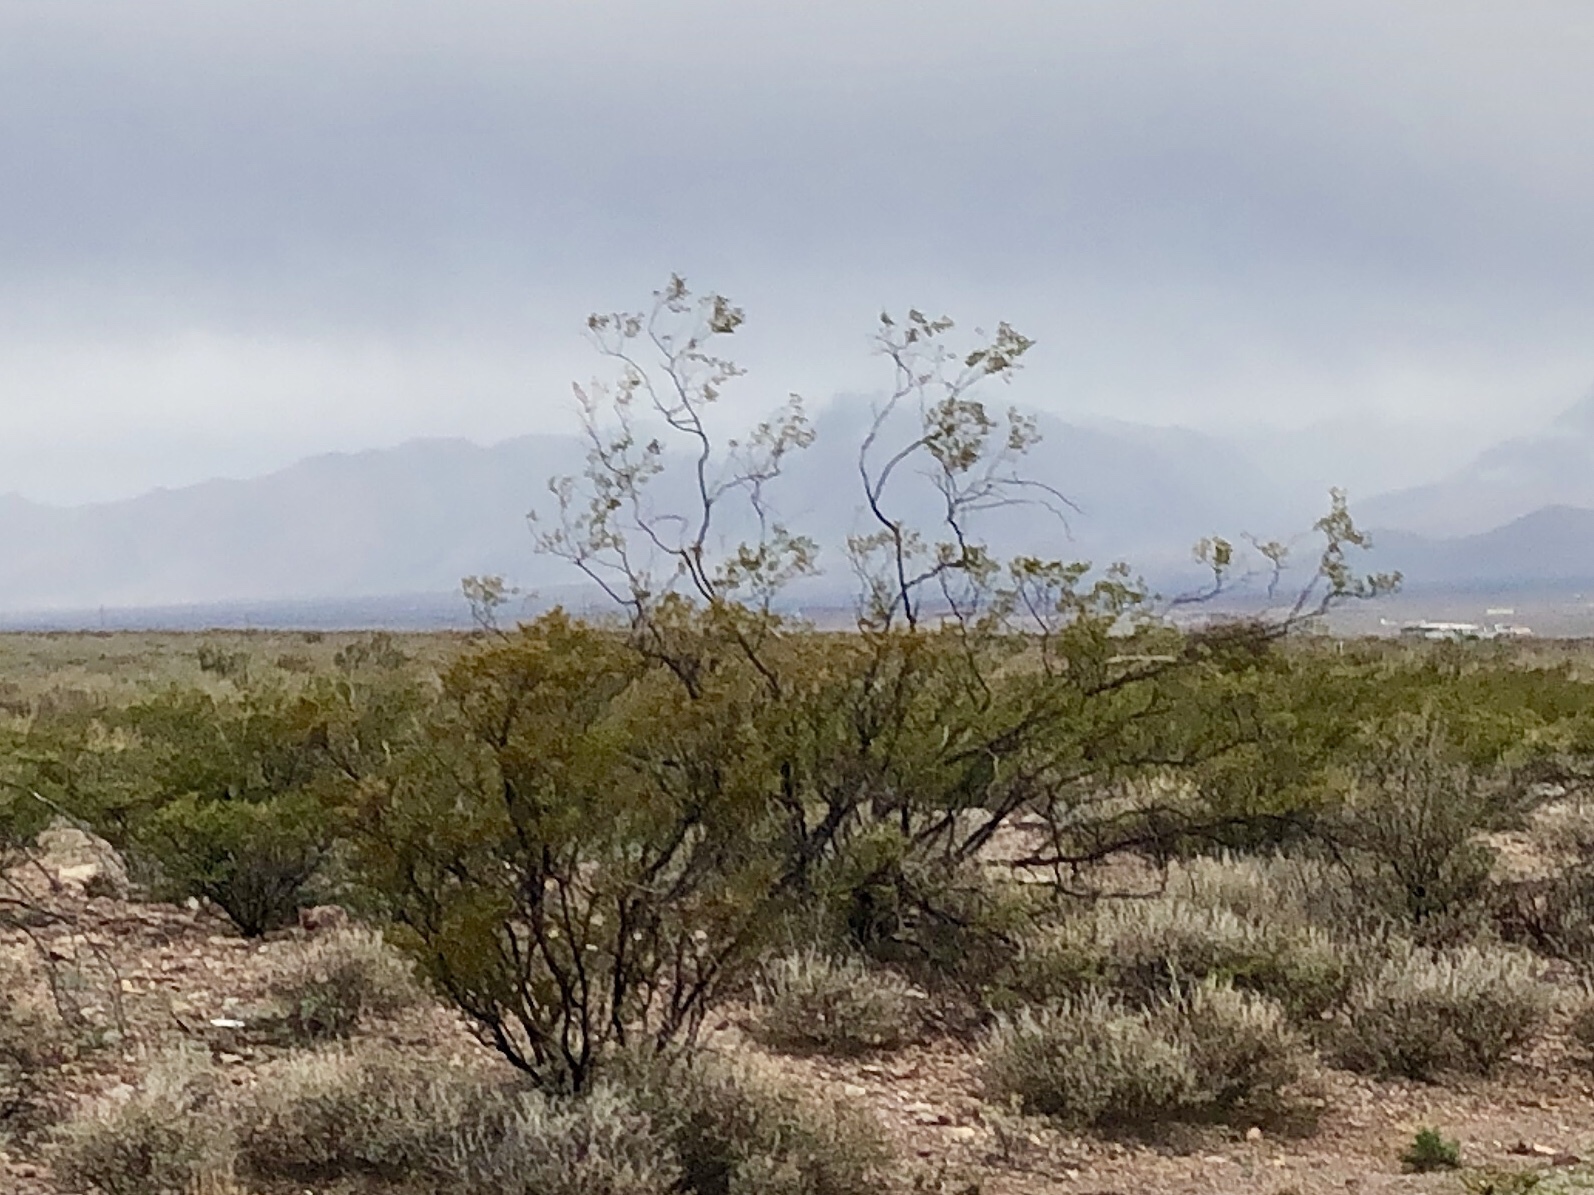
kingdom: Plantae
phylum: Tracheophyta
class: Magnoliopsida
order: Zygophyllales
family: Zygophyllaceae
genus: Larrea
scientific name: Larrea tridentata
